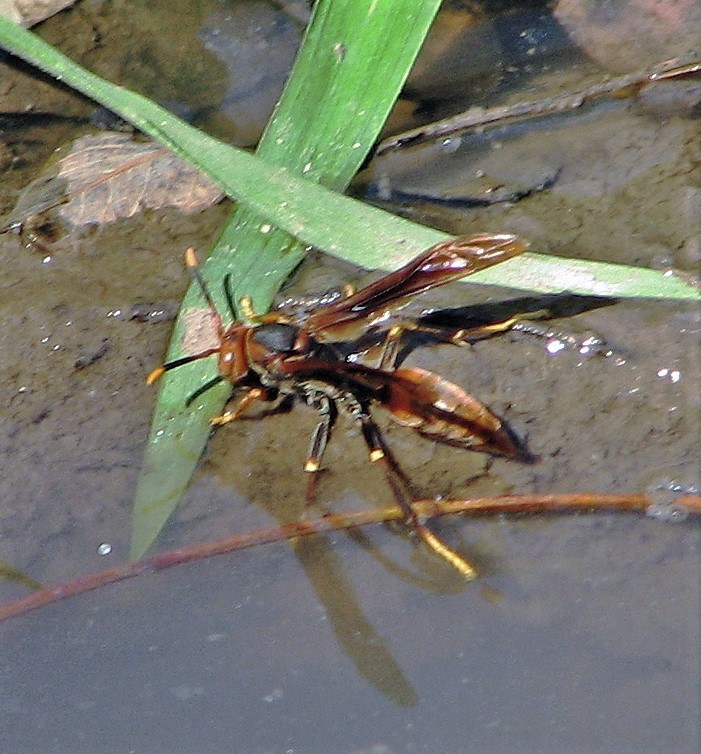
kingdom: Animalia
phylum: Arthropoda
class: Insecta
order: Hymenoptera
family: Pompilidae
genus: Aphanilopterus
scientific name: Aphanilopterus
